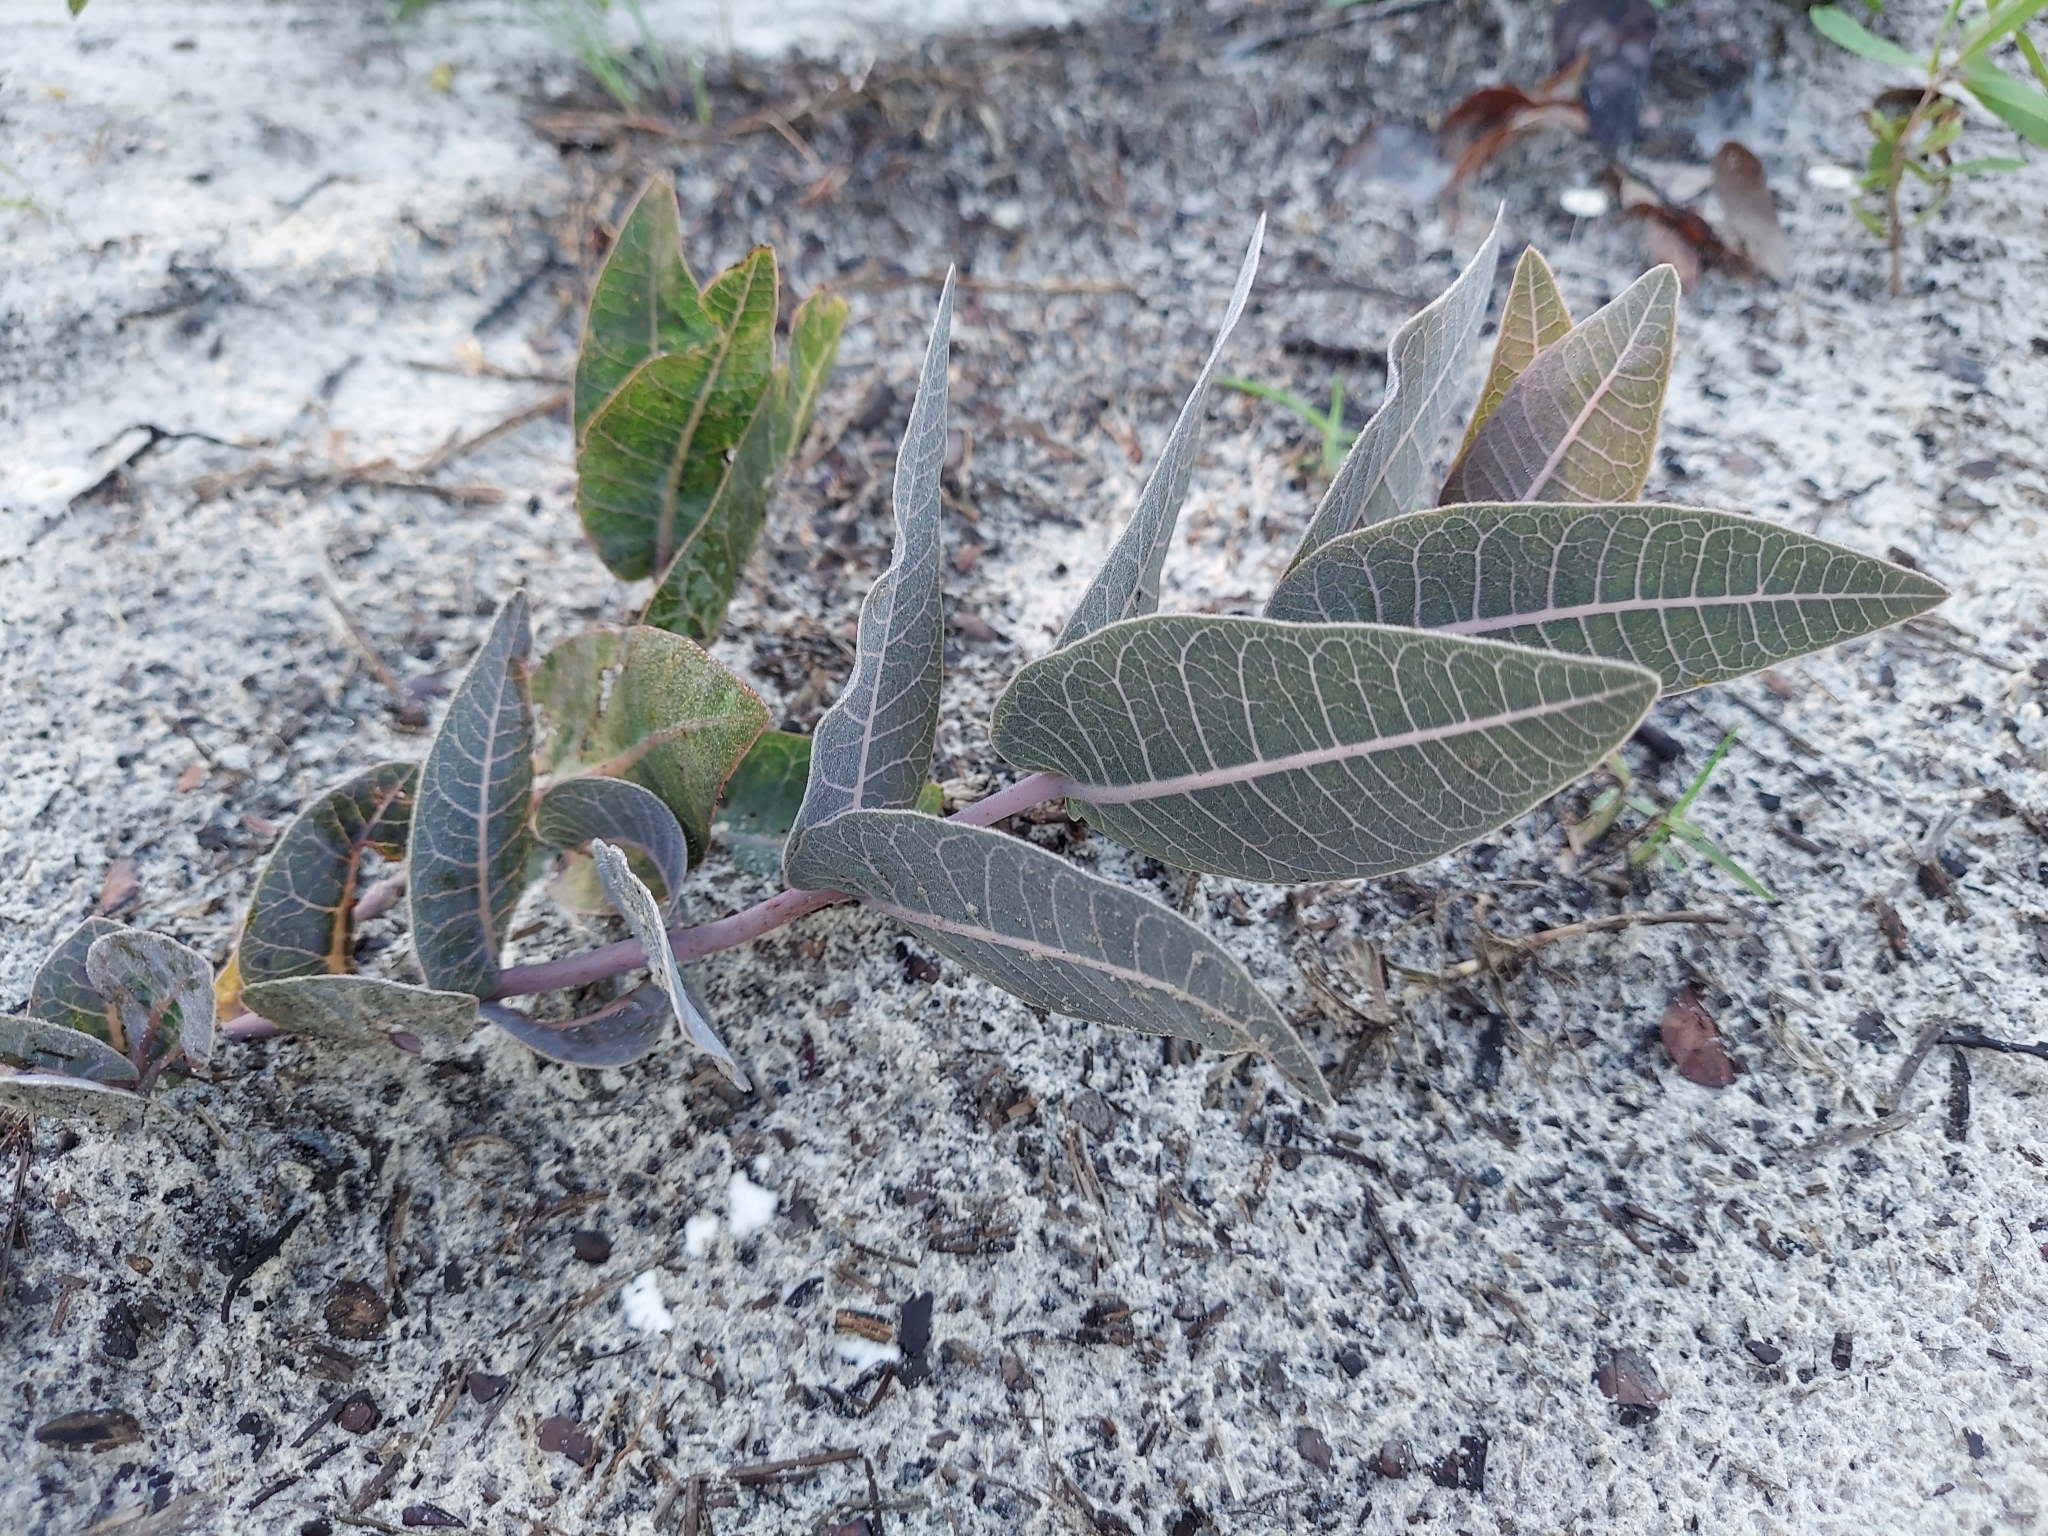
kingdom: Plantae
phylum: Tracheophyta
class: Magnoliopsida
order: Gentianales
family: Apocynaceae
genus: Asclepias
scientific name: Asclepias humistrata
